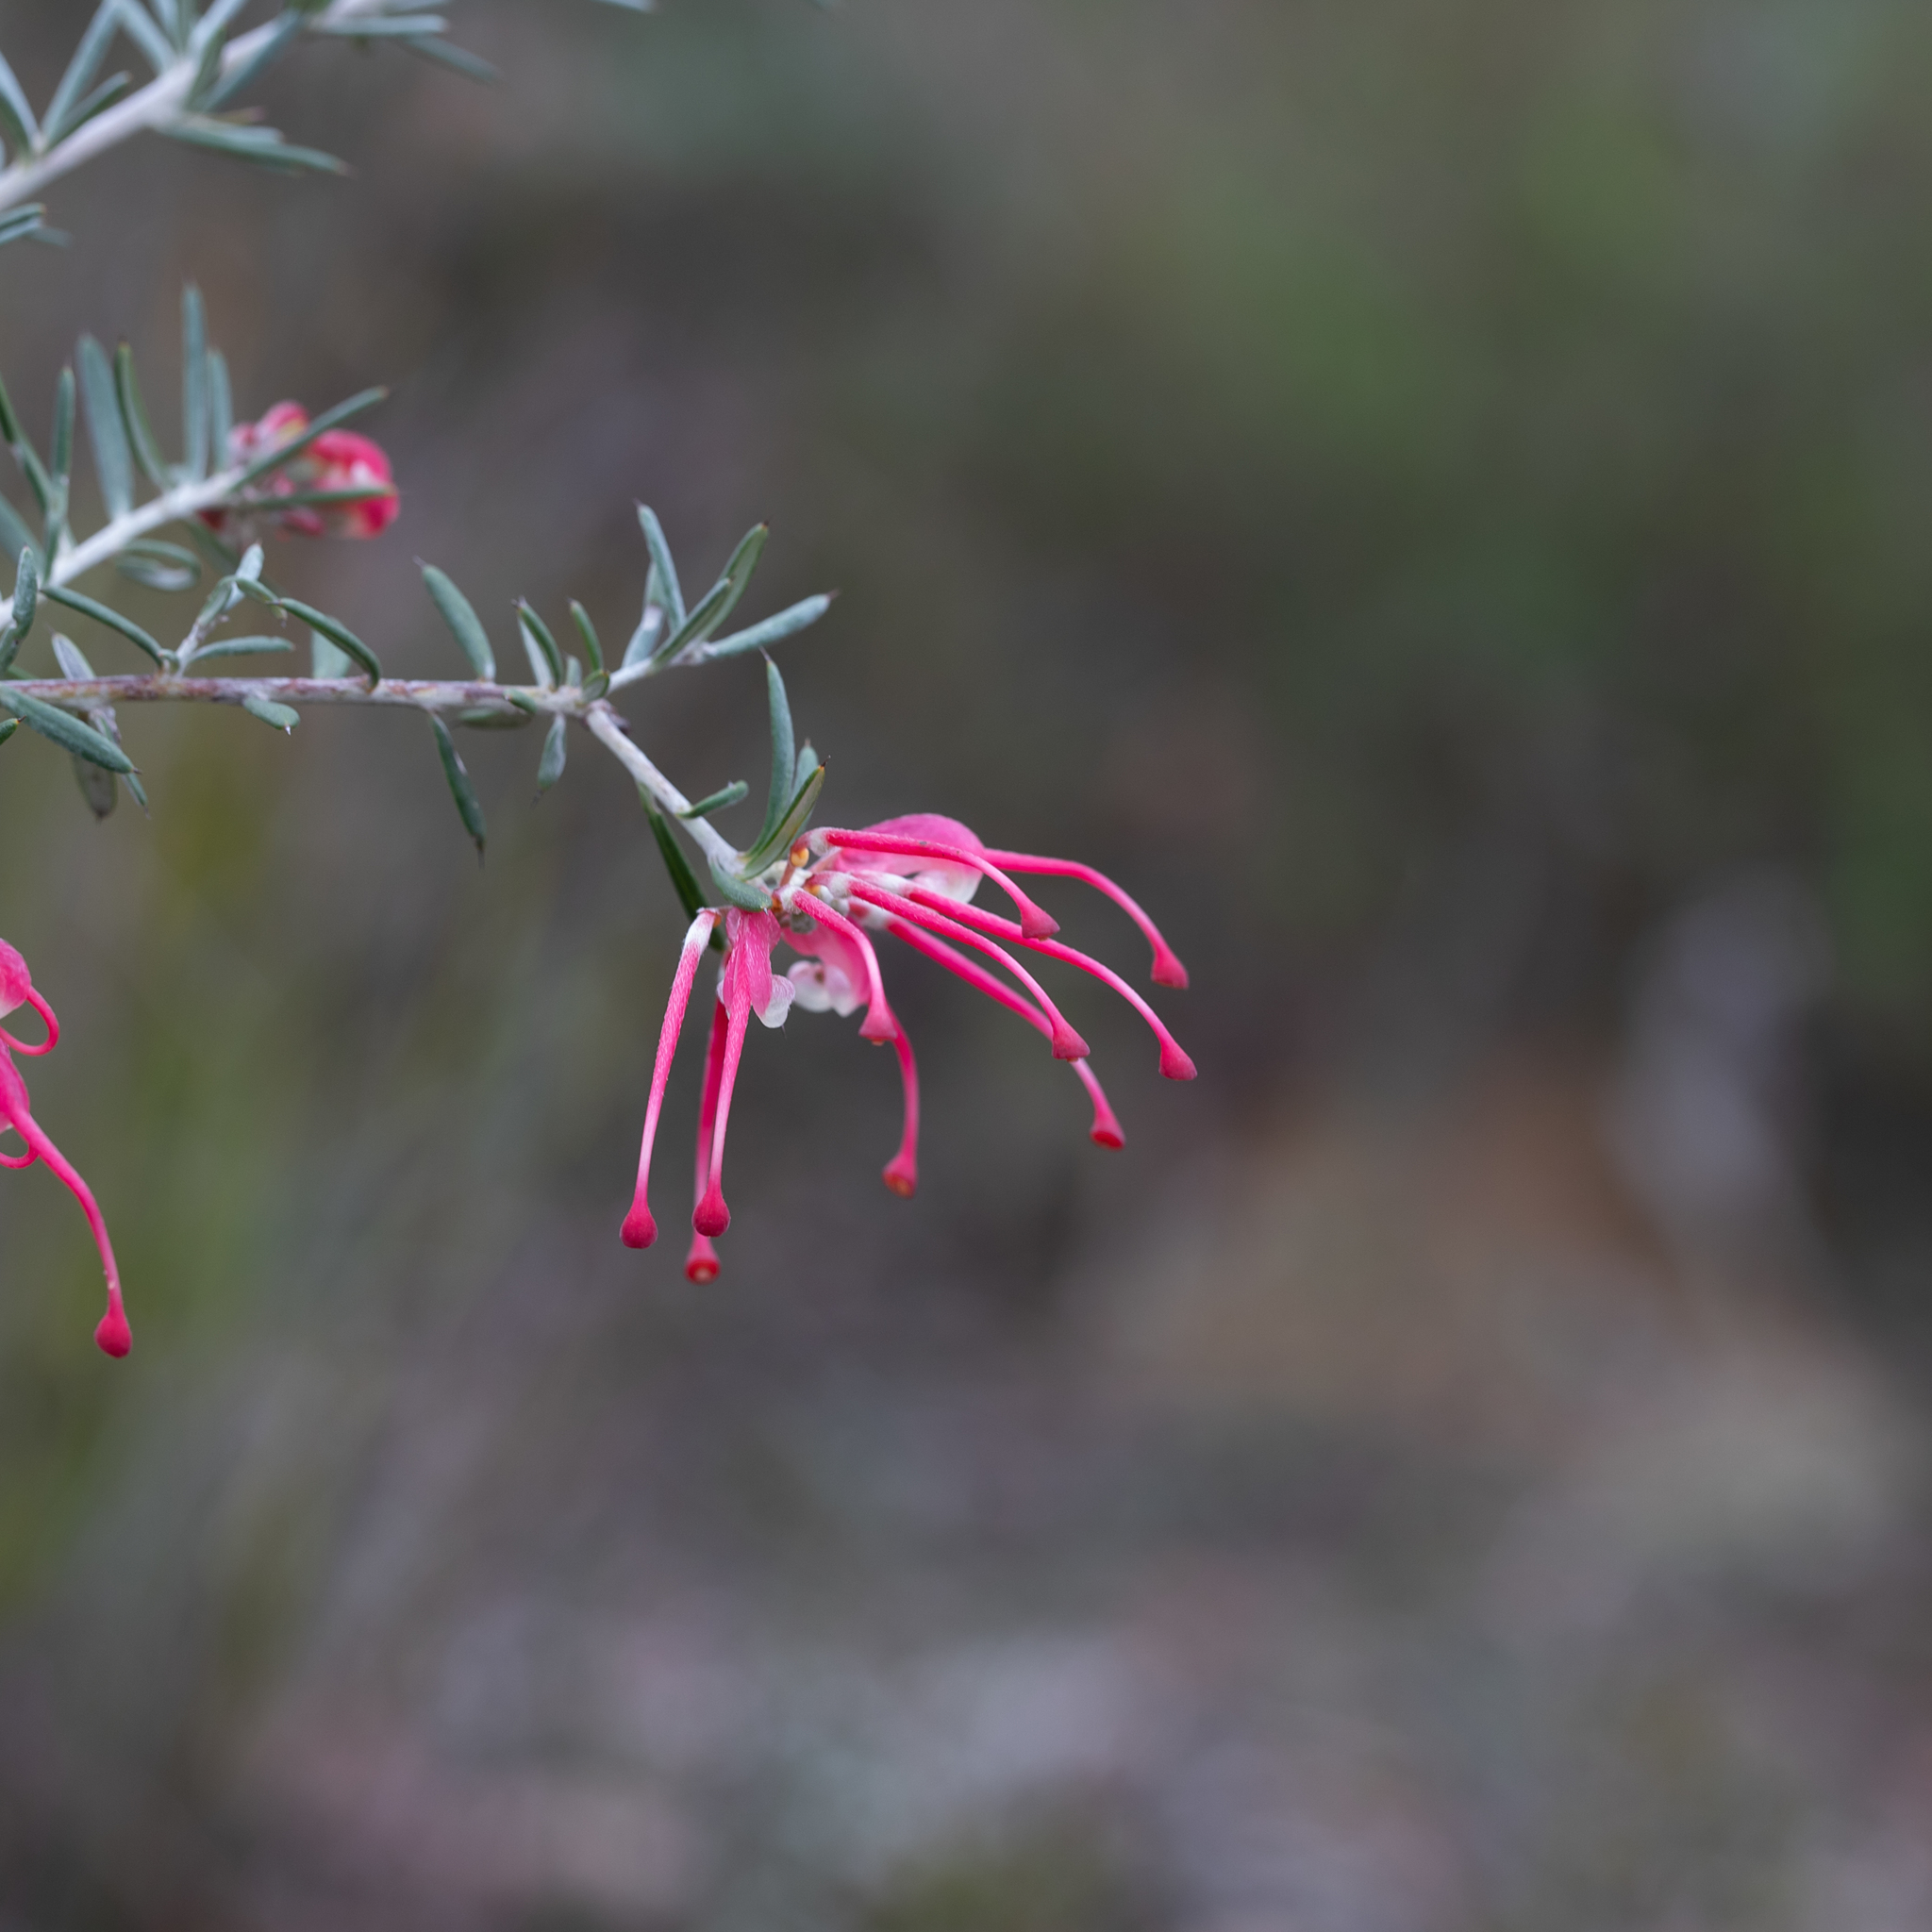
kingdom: Plantae
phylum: Tracheophyta
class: Magnoliopsida
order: Proteales
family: Proteaceae
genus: Grevillea
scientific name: Grevillea lavandulacea
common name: Lavender grevillea
